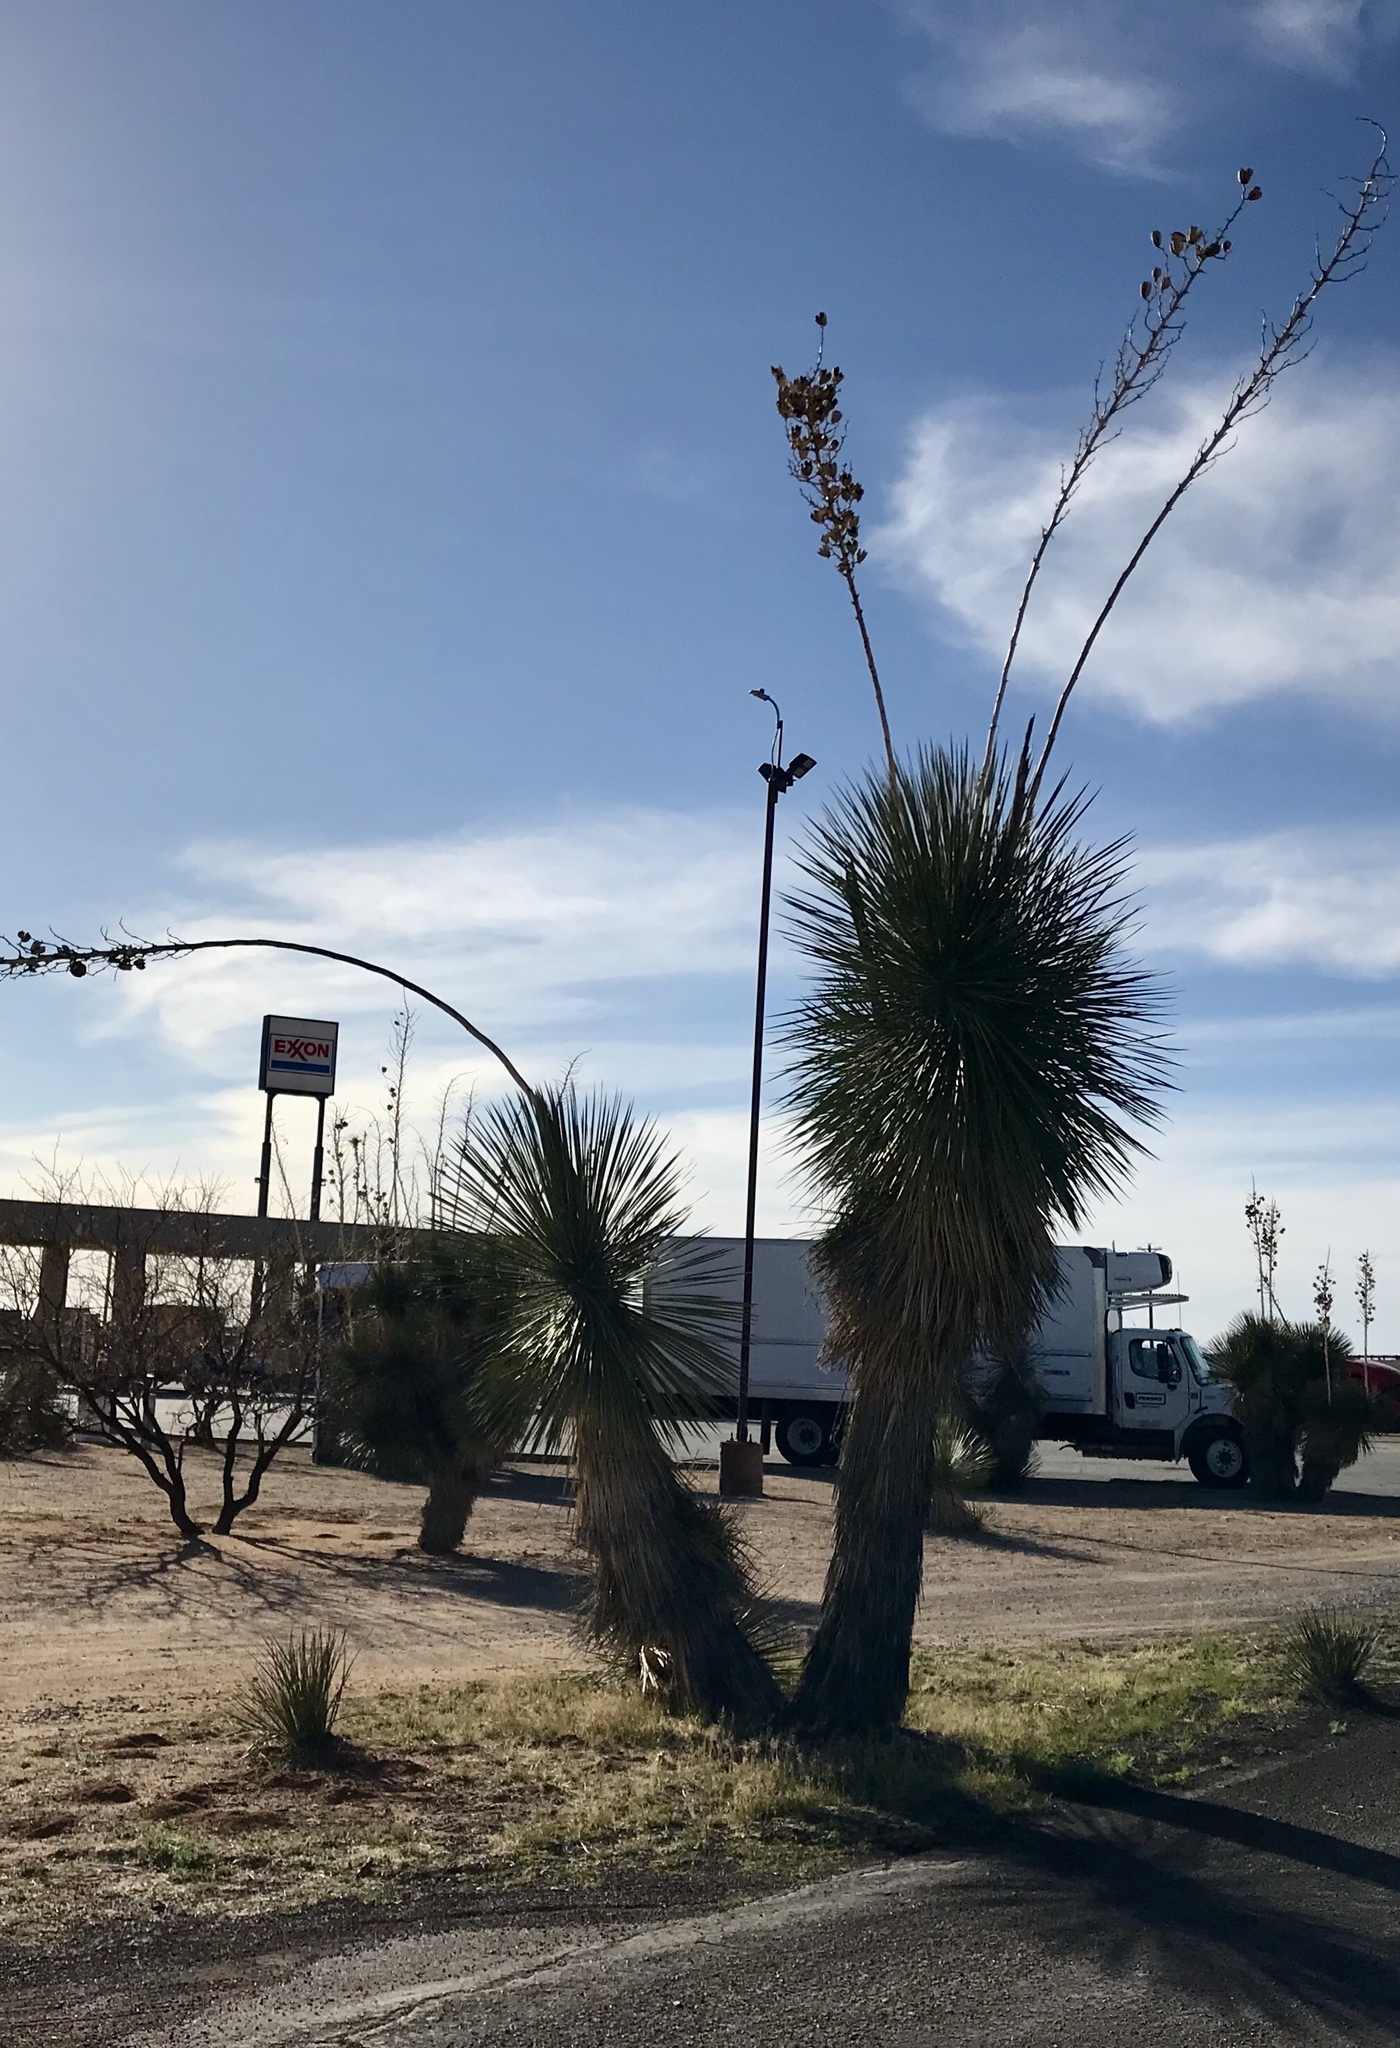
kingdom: Plantae
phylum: Tracheophyta
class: Liliopsida
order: Asparagales
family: Asparagaceae
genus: Yucca
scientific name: Yucca elata
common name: Palmella
